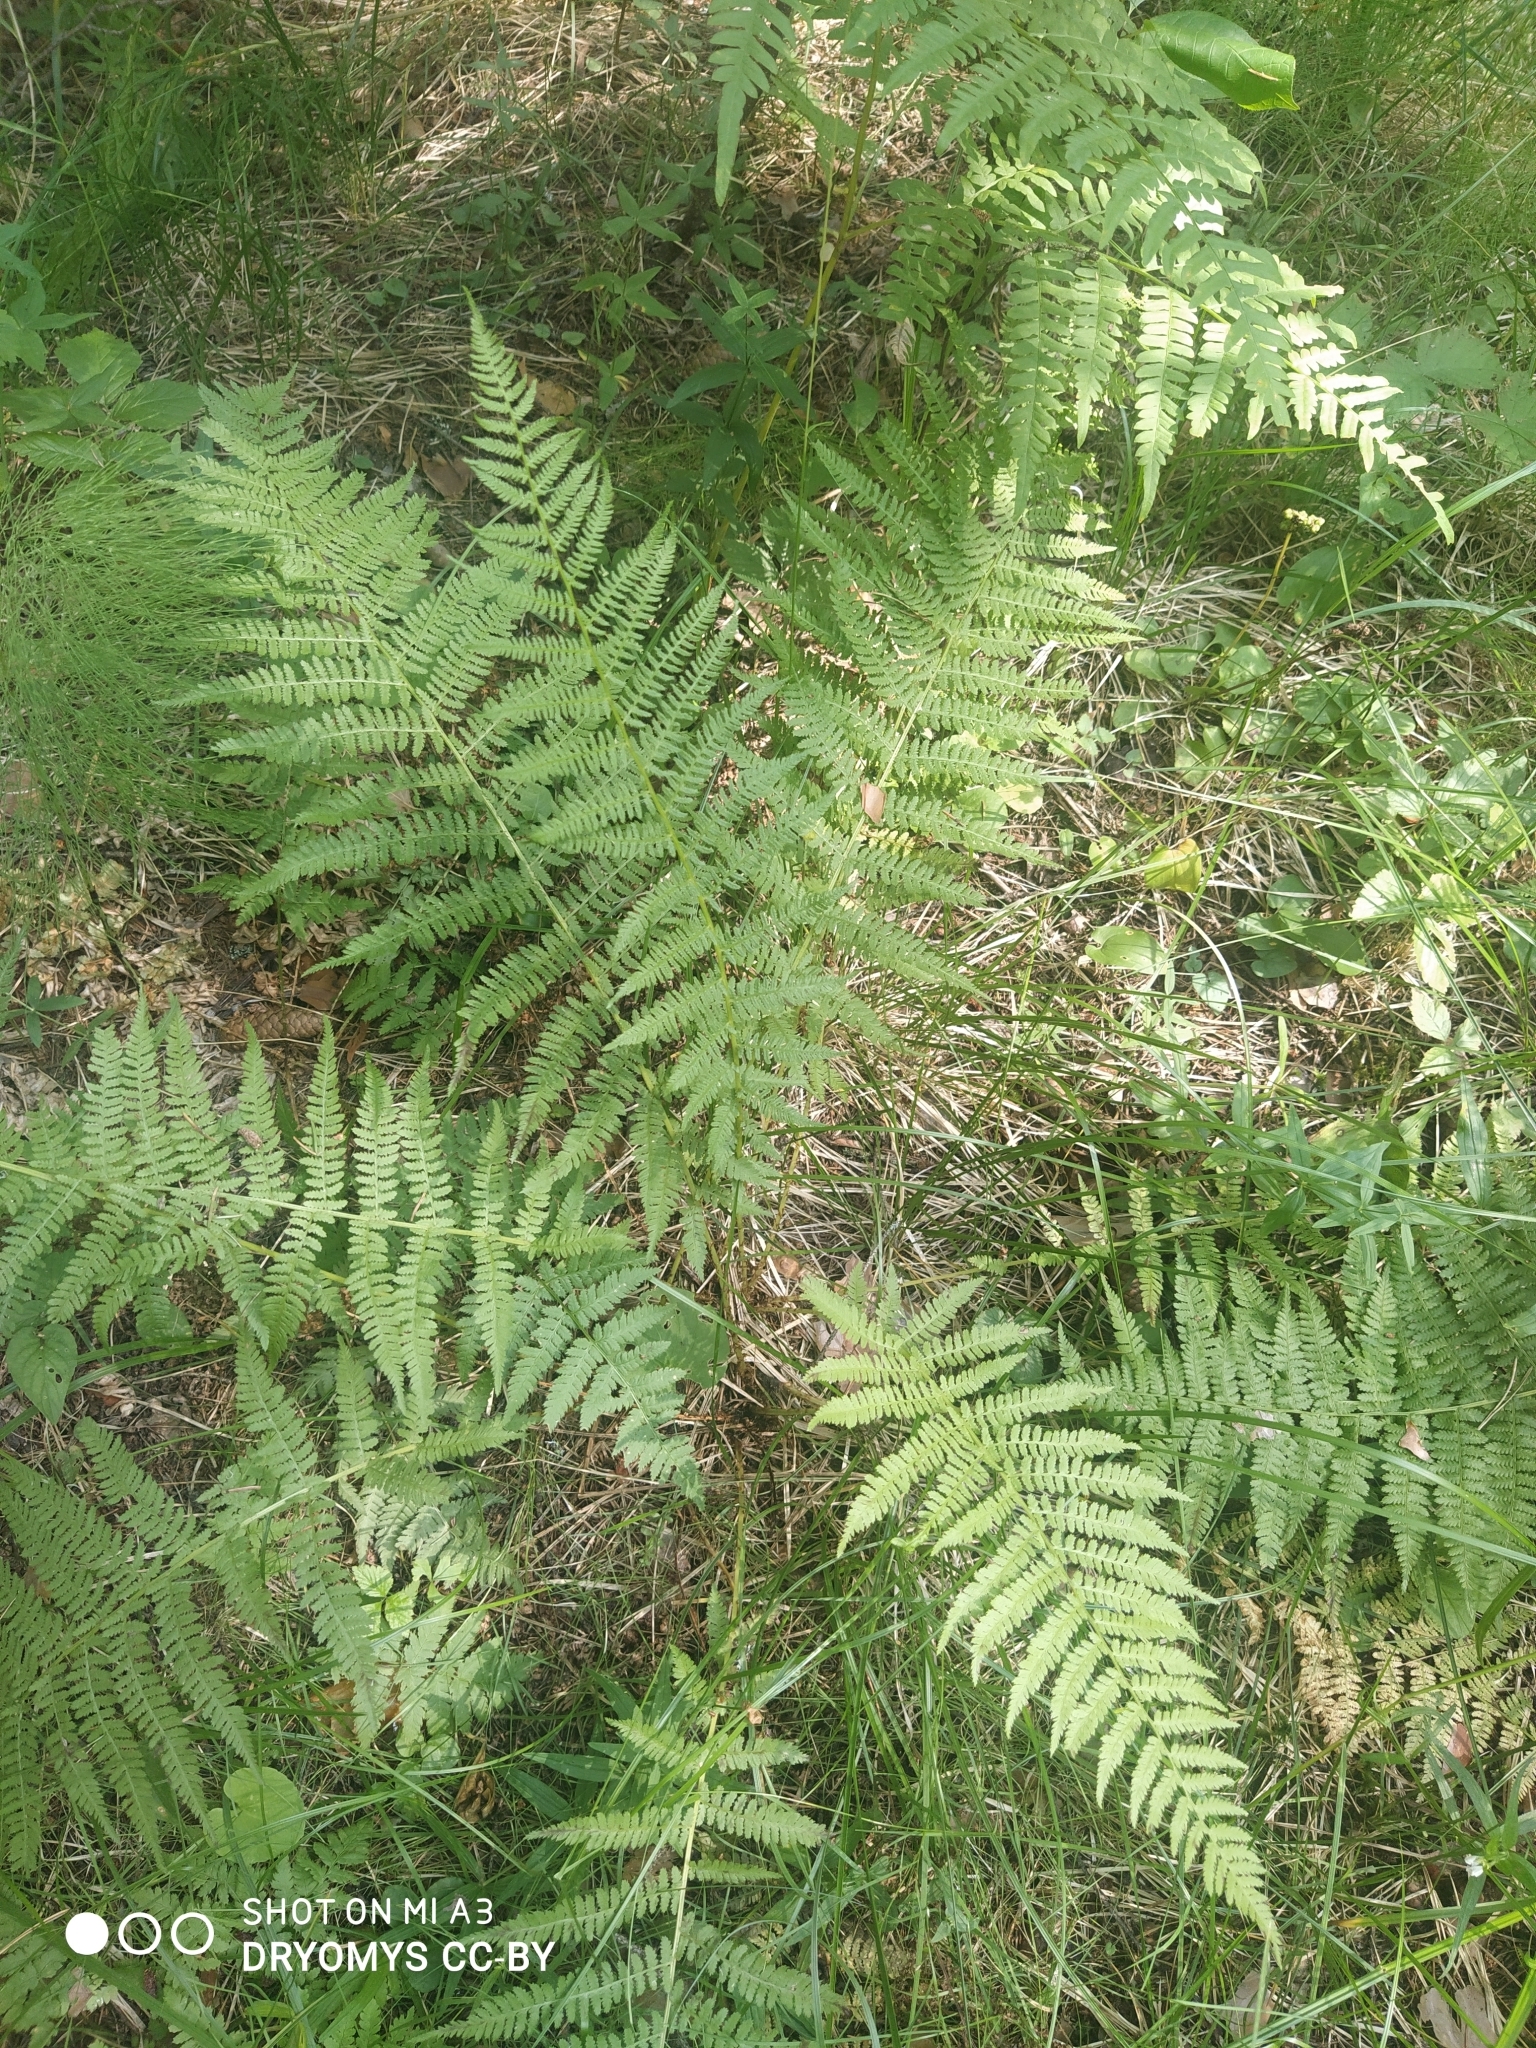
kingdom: Plantae
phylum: Tracheophyta
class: Polypodiopsida
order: Polypodiales
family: Athyriaceae
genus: Athyrium
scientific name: Athyrium filix-femina
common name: Lady fern
